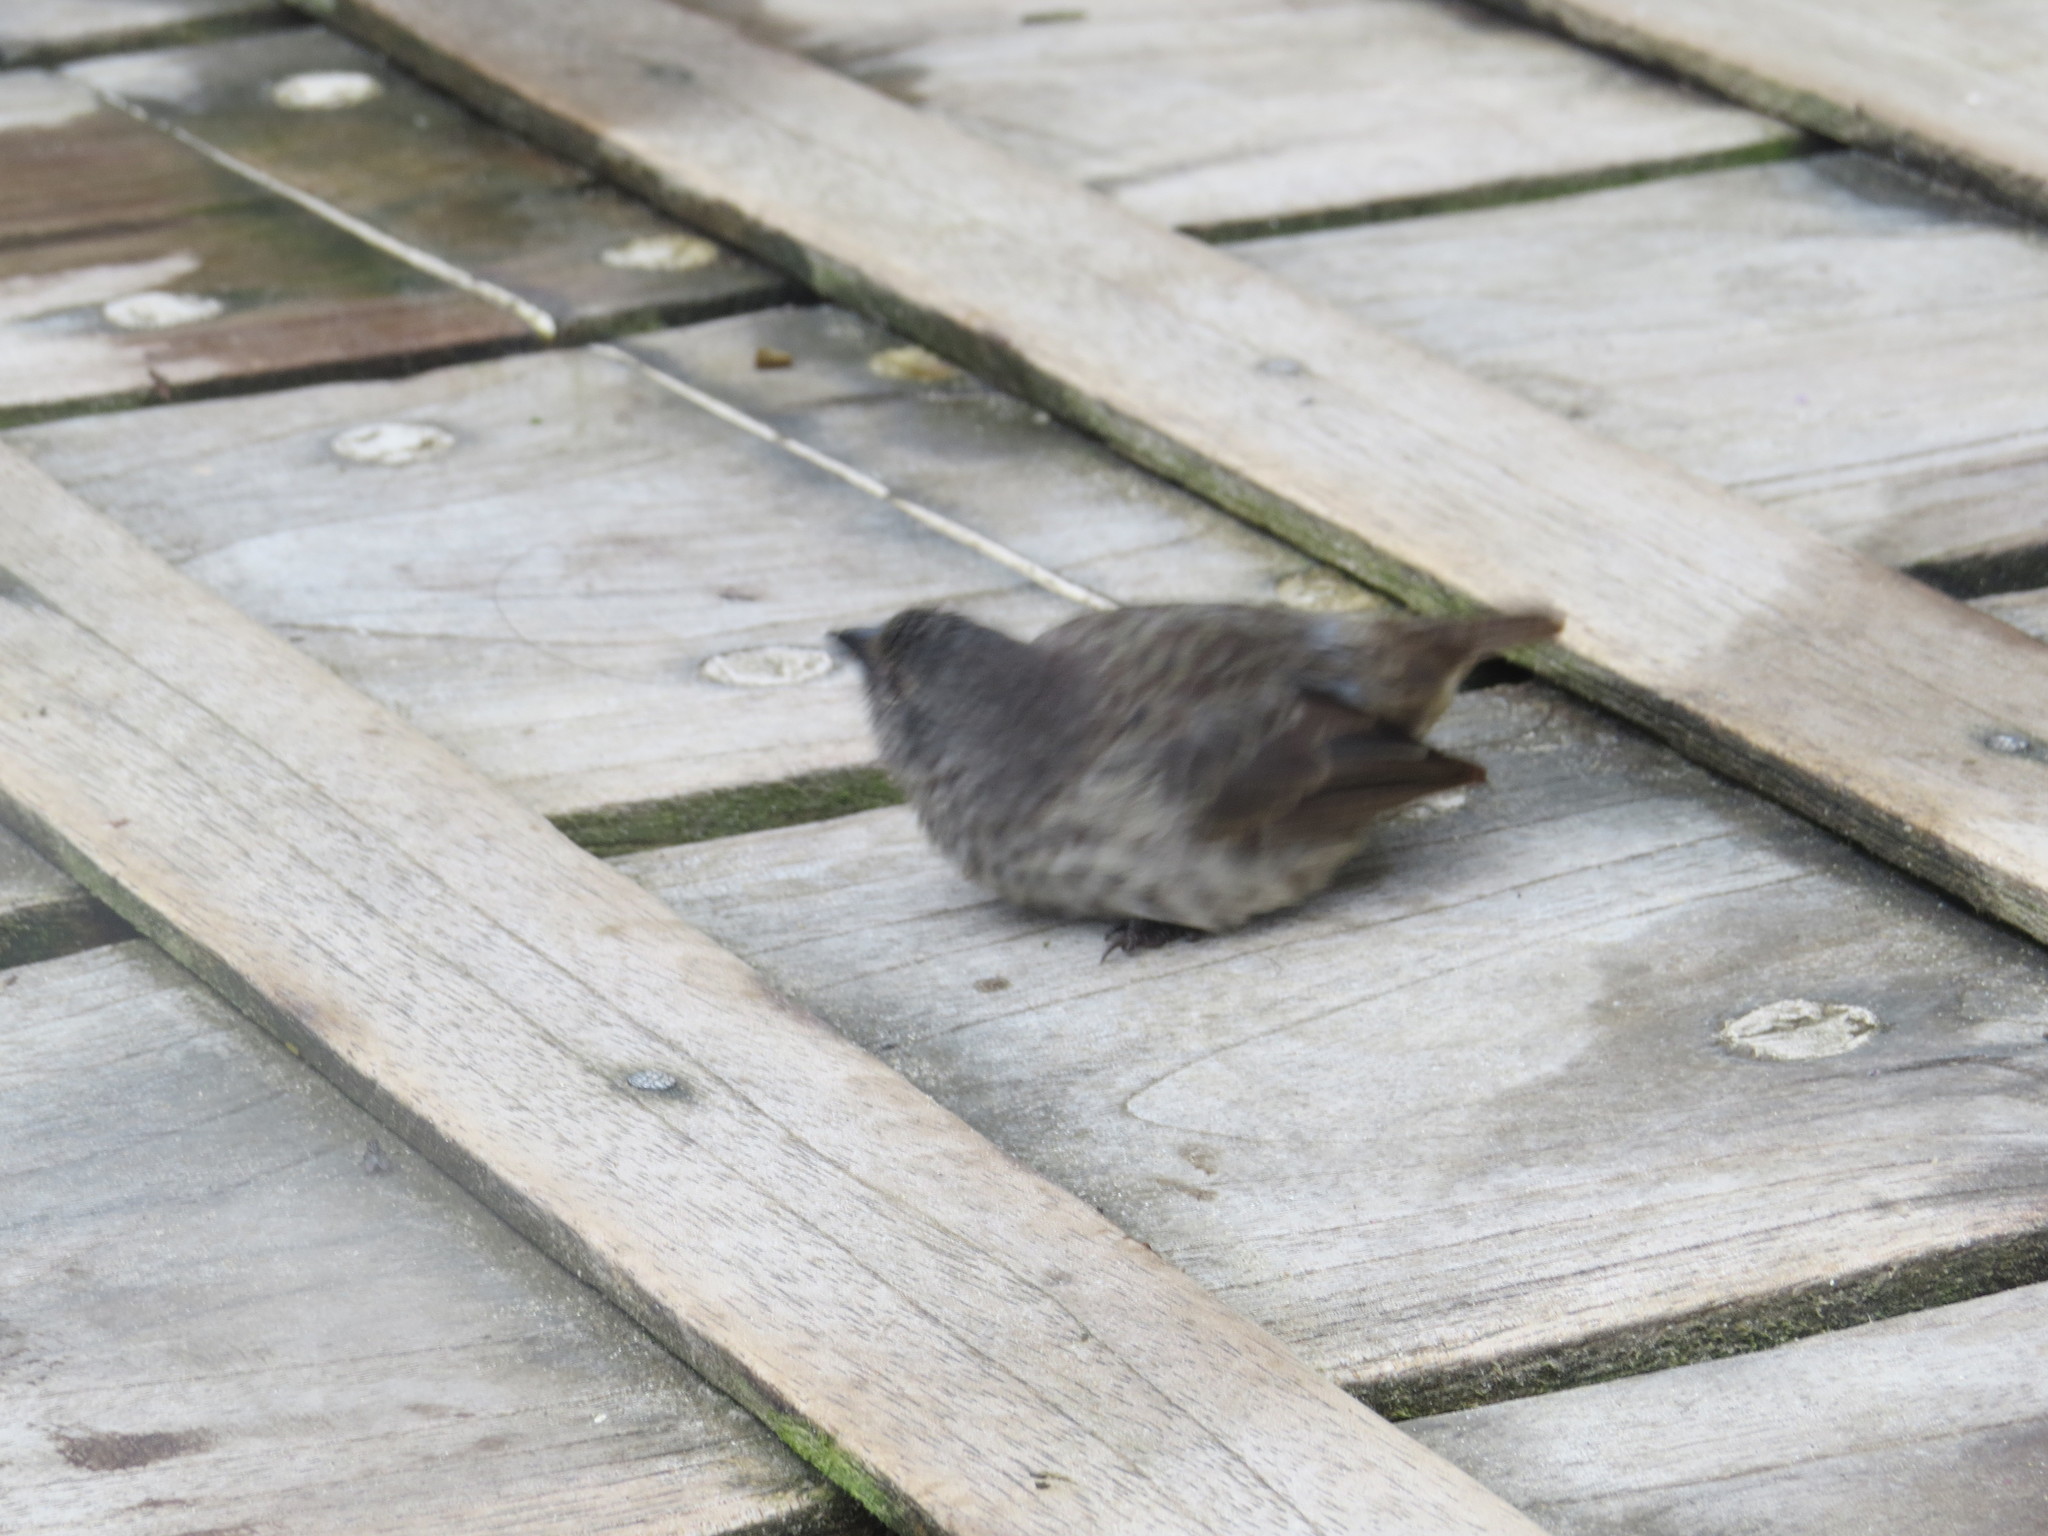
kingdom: Animalia
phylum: Chordata
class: Aves
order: Passeriformes
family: Thraupidae
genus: Geospiza
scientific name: Geospiza fuliginosa
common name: Small ground finch
